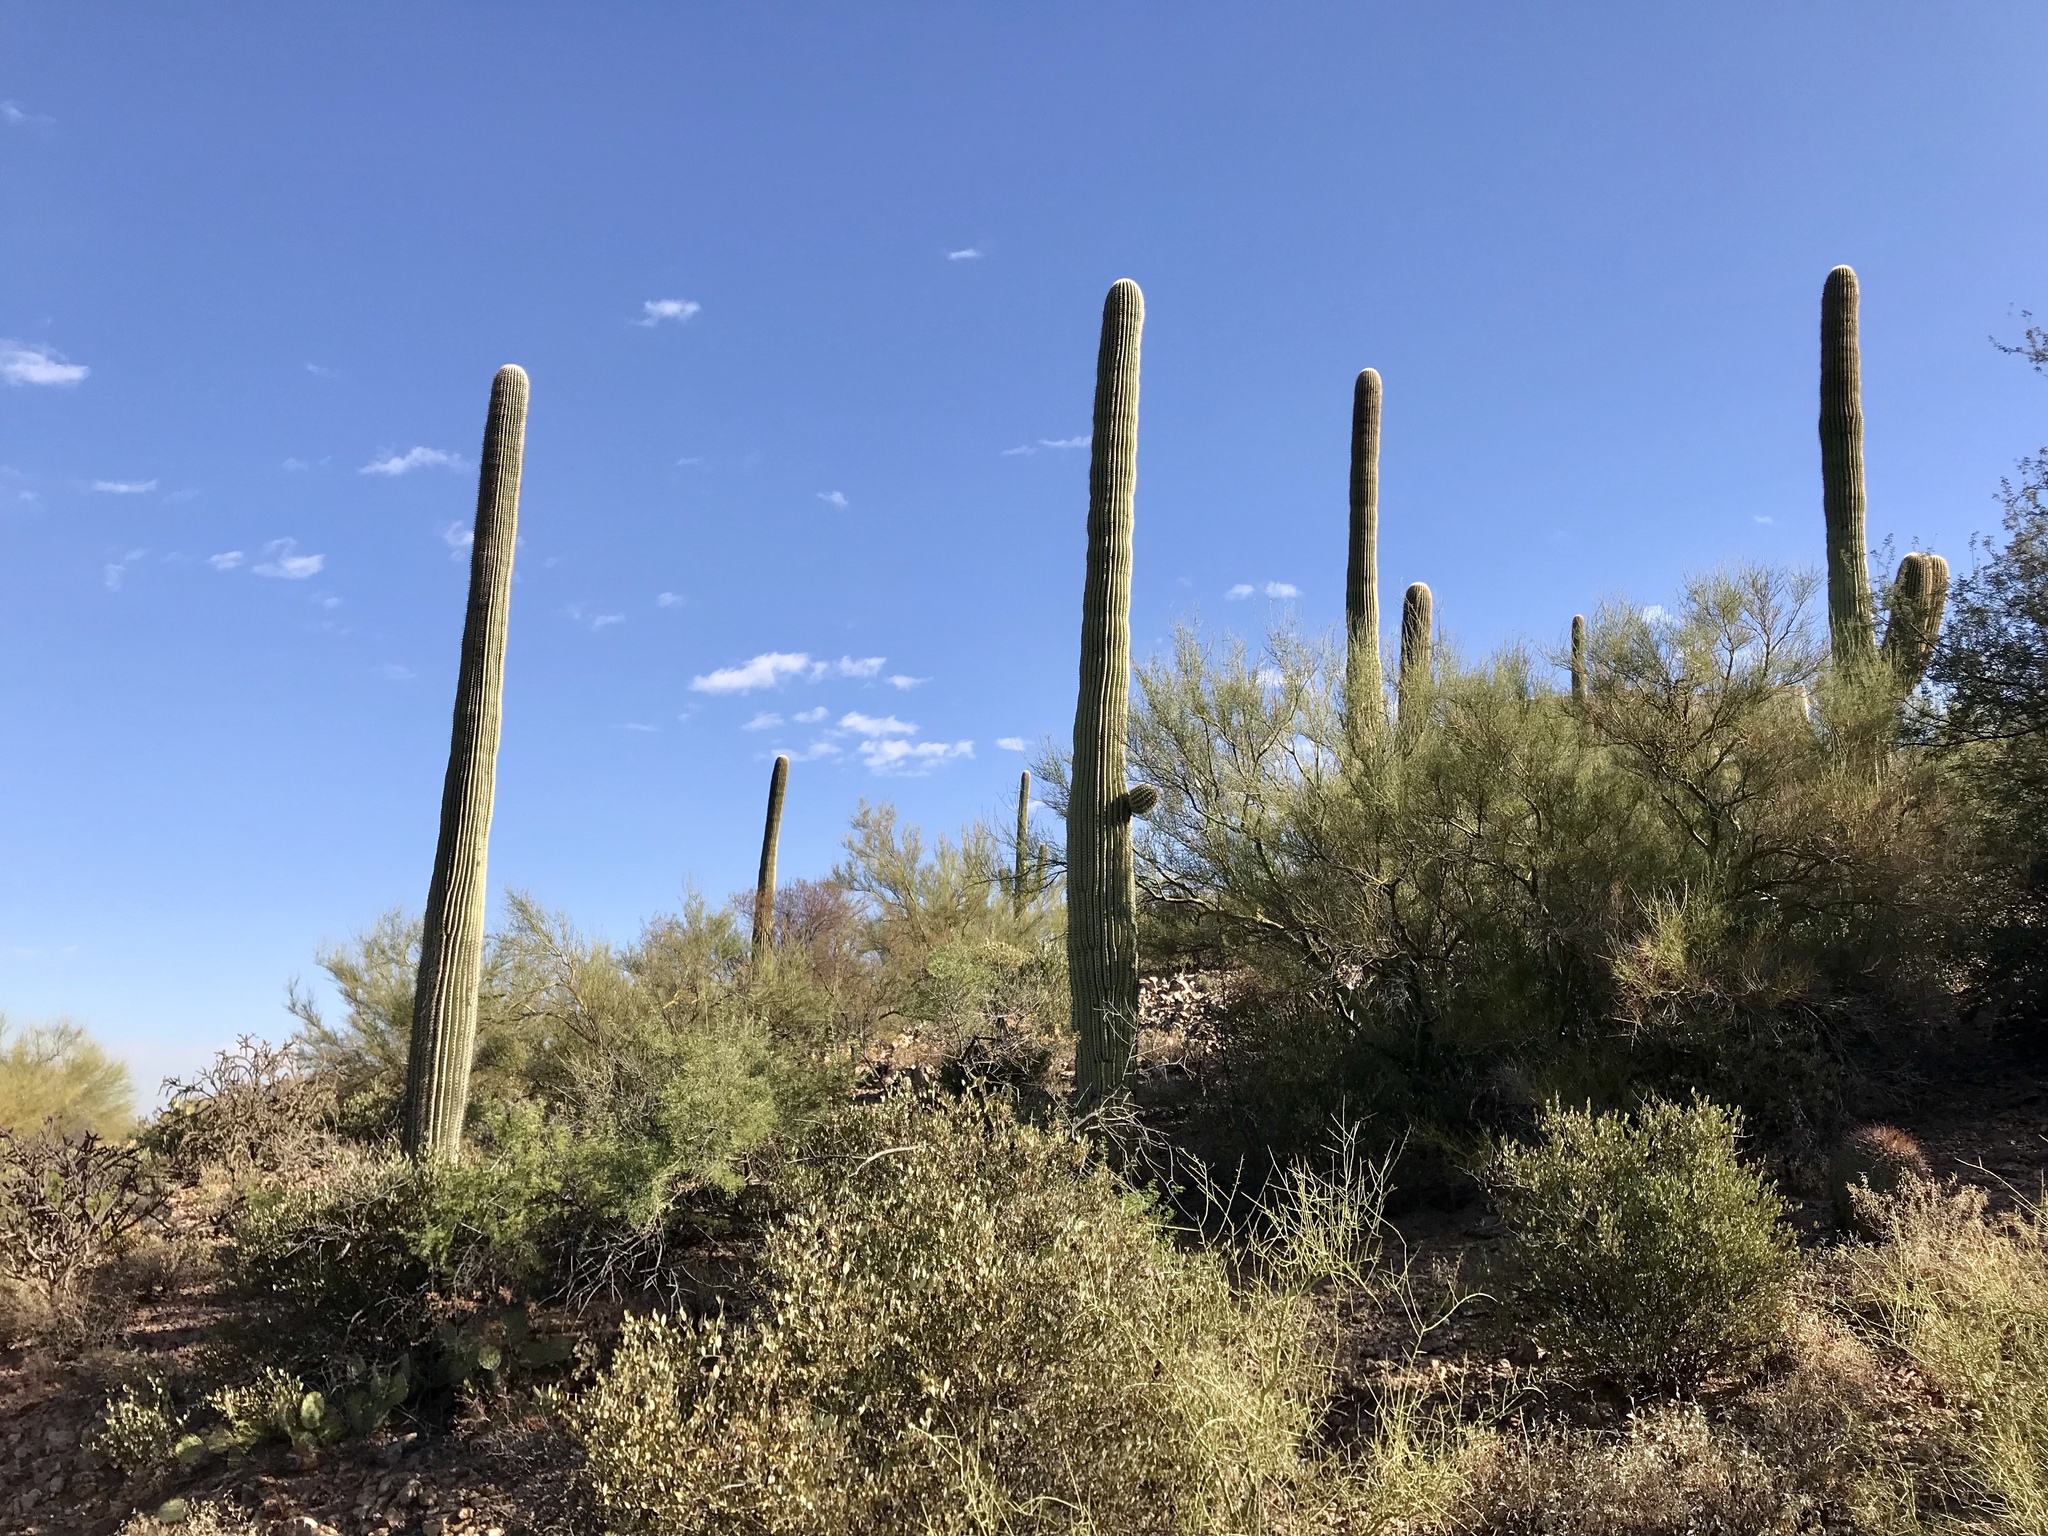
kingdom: Plantae
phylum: Tracheophyta
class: Magnoliopsida
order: Caryophyllales
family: Cactaceae
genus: Carnegiea
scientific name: Carnegiea gigantea
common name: Saguaro
